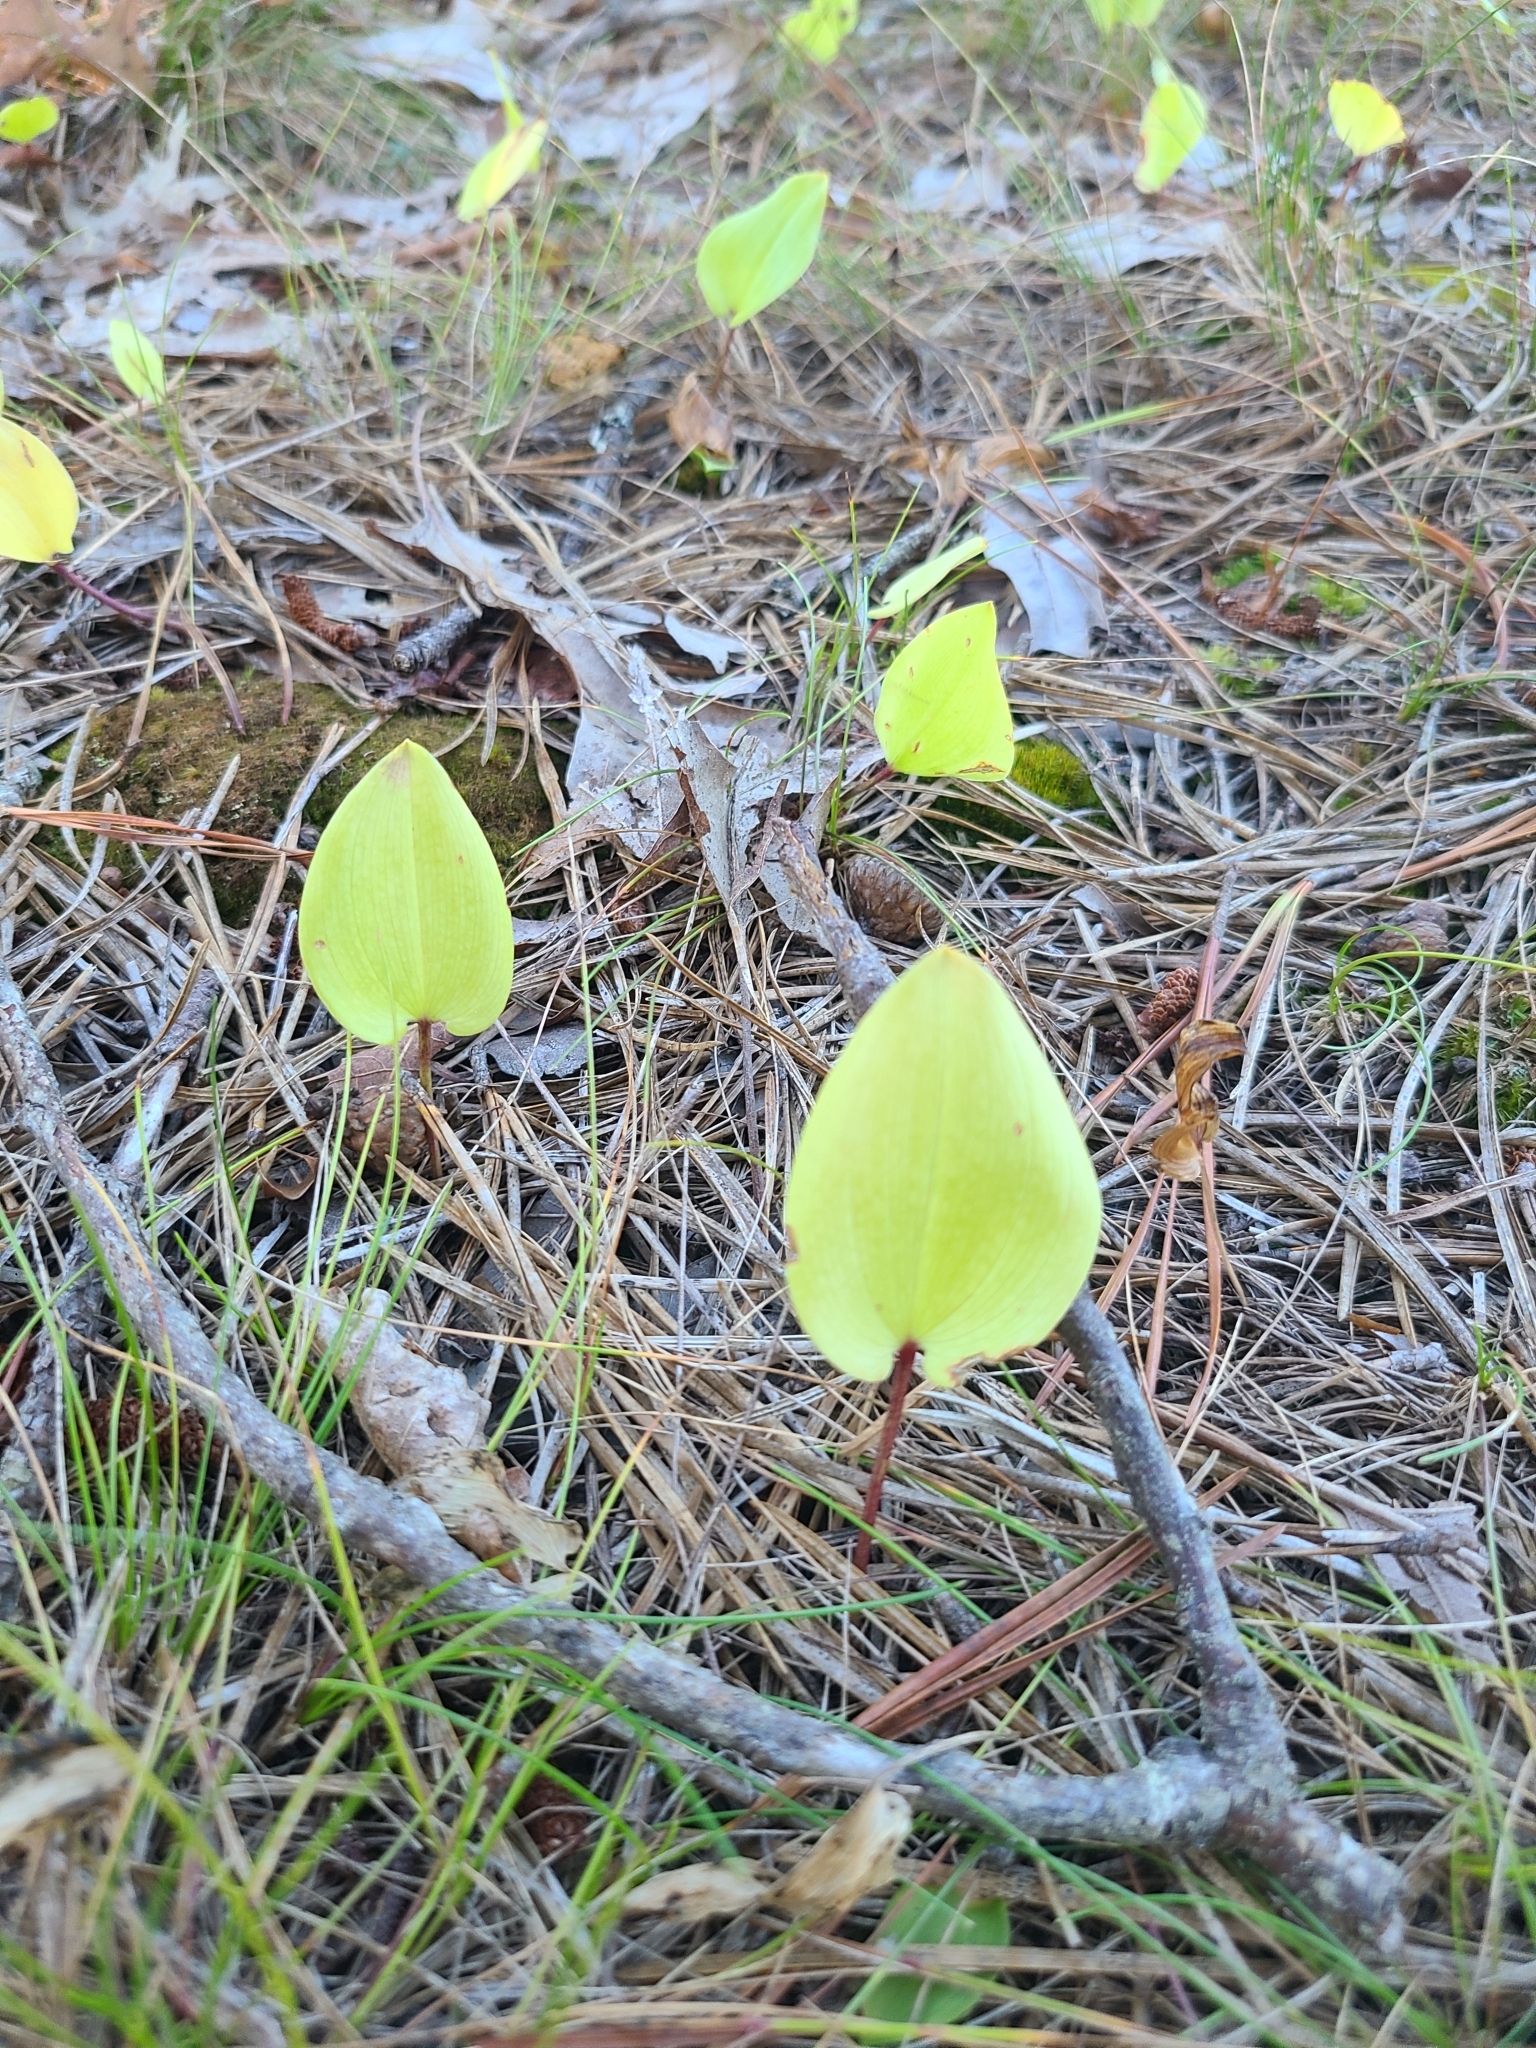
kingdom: Plantae
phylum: Tracheophyta
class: Liliopsida
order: Asparagales
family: Asparagaceae
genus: Maianthemum
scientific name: Maianthemum canadense
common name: False lily-of-the-valley
